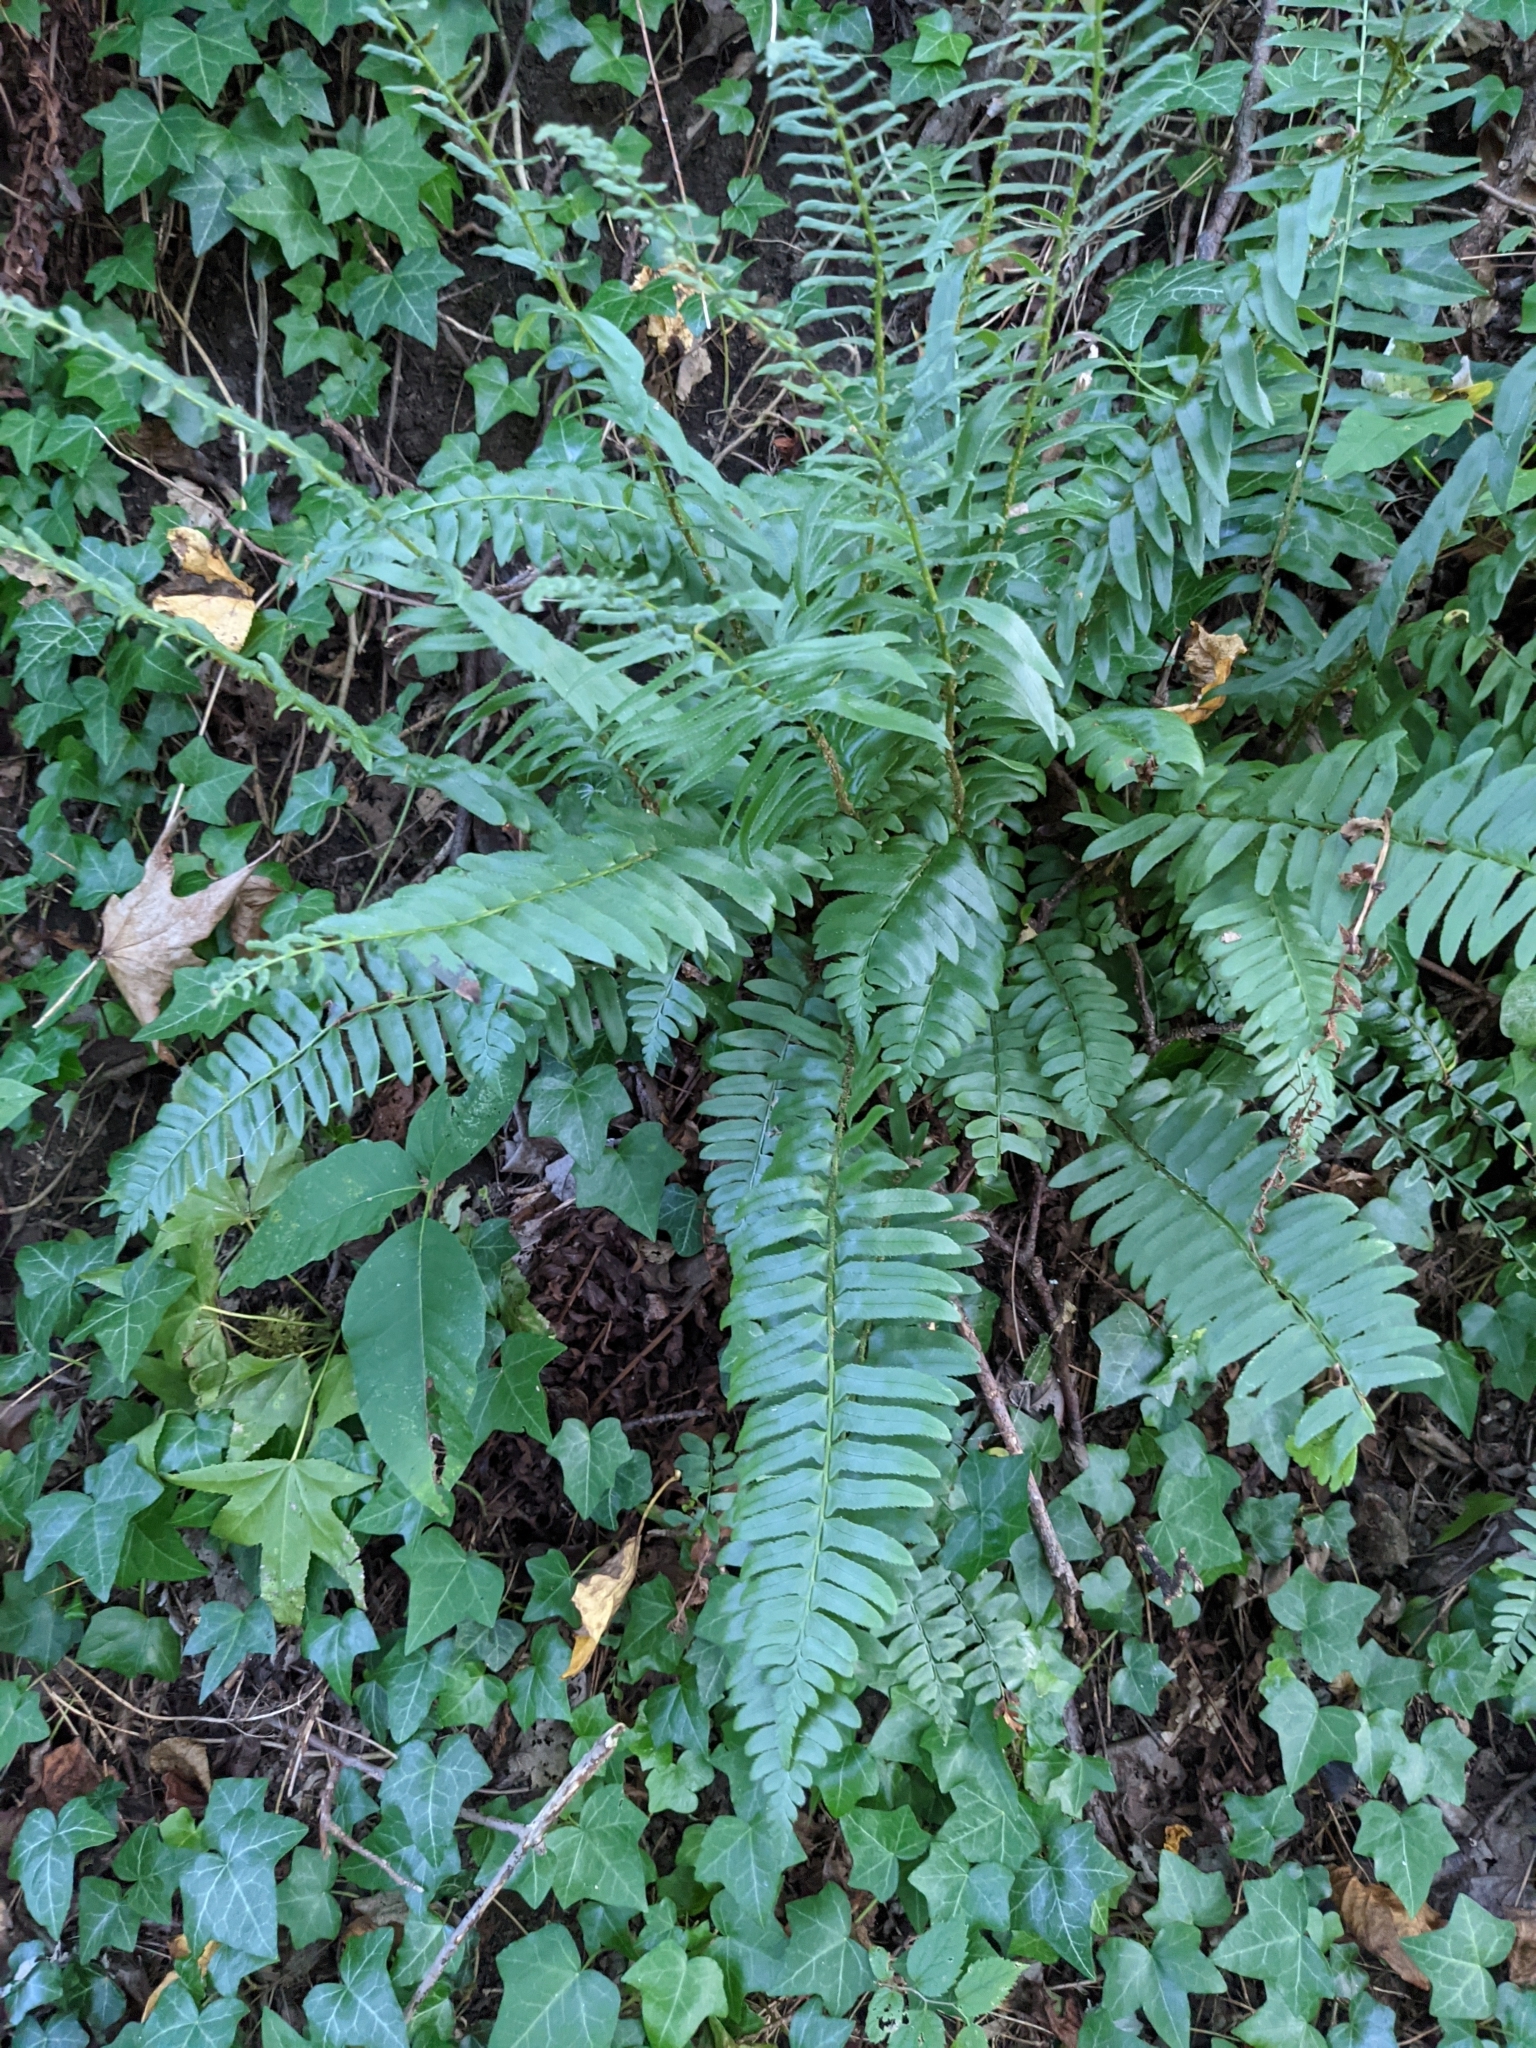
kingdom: Plantae
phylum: Tracheophyta
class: Polypodiopsida
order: Polypodiales
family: Dryopteridaceae
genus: Polystichum
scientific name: Polystichum acrostichoides
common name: Christmas fern
